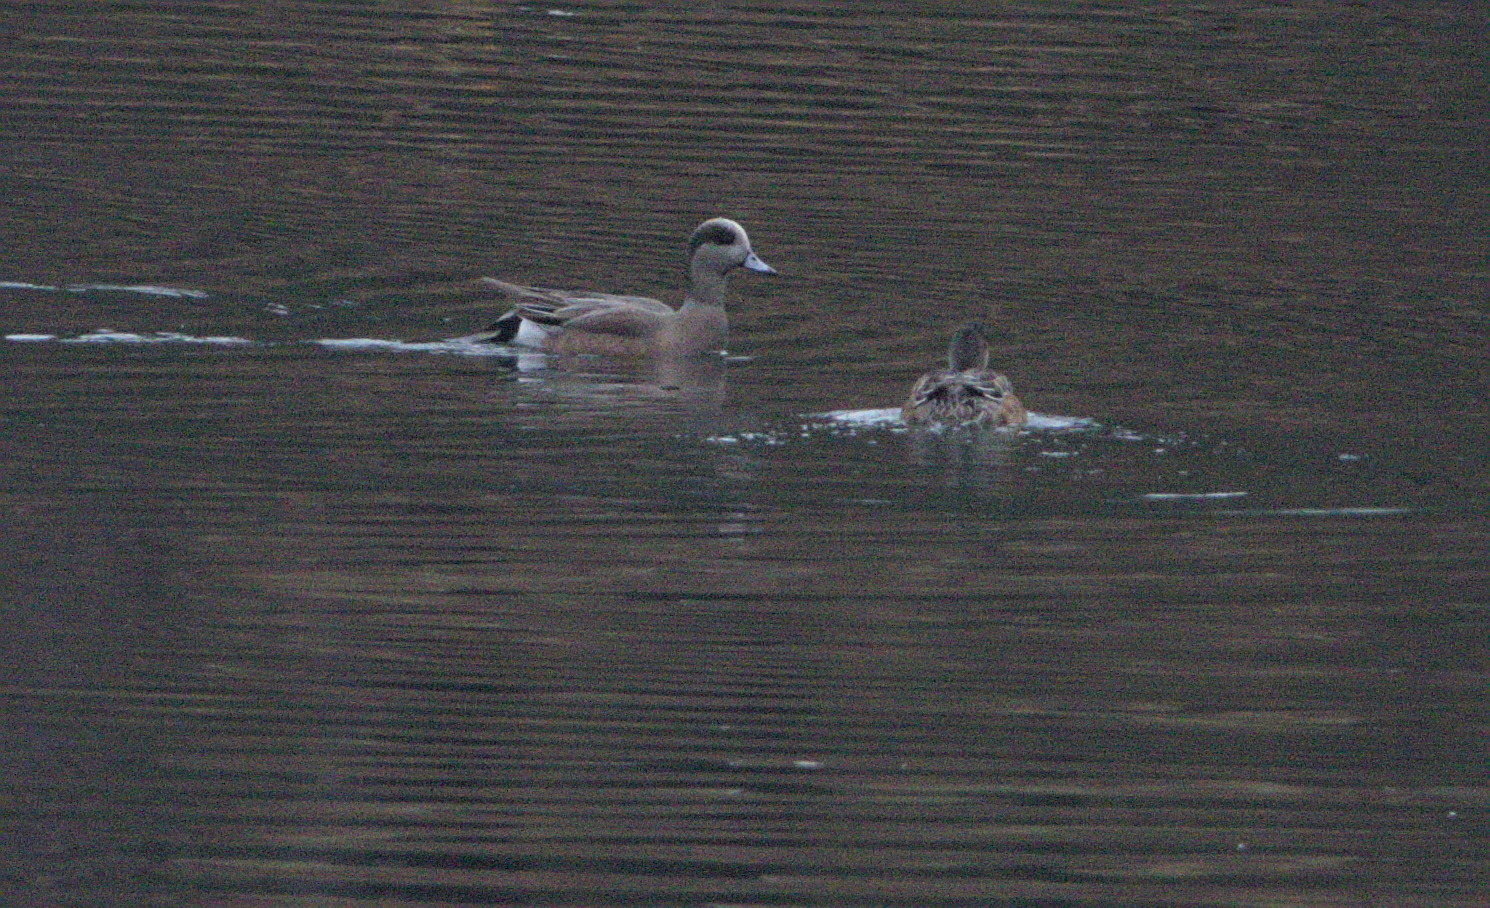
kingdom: Animalia
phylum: Chordata
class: Aves
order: Anseriformes
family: Anatidae
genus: Mareca
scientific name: Mareca americana
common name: American wigeon
